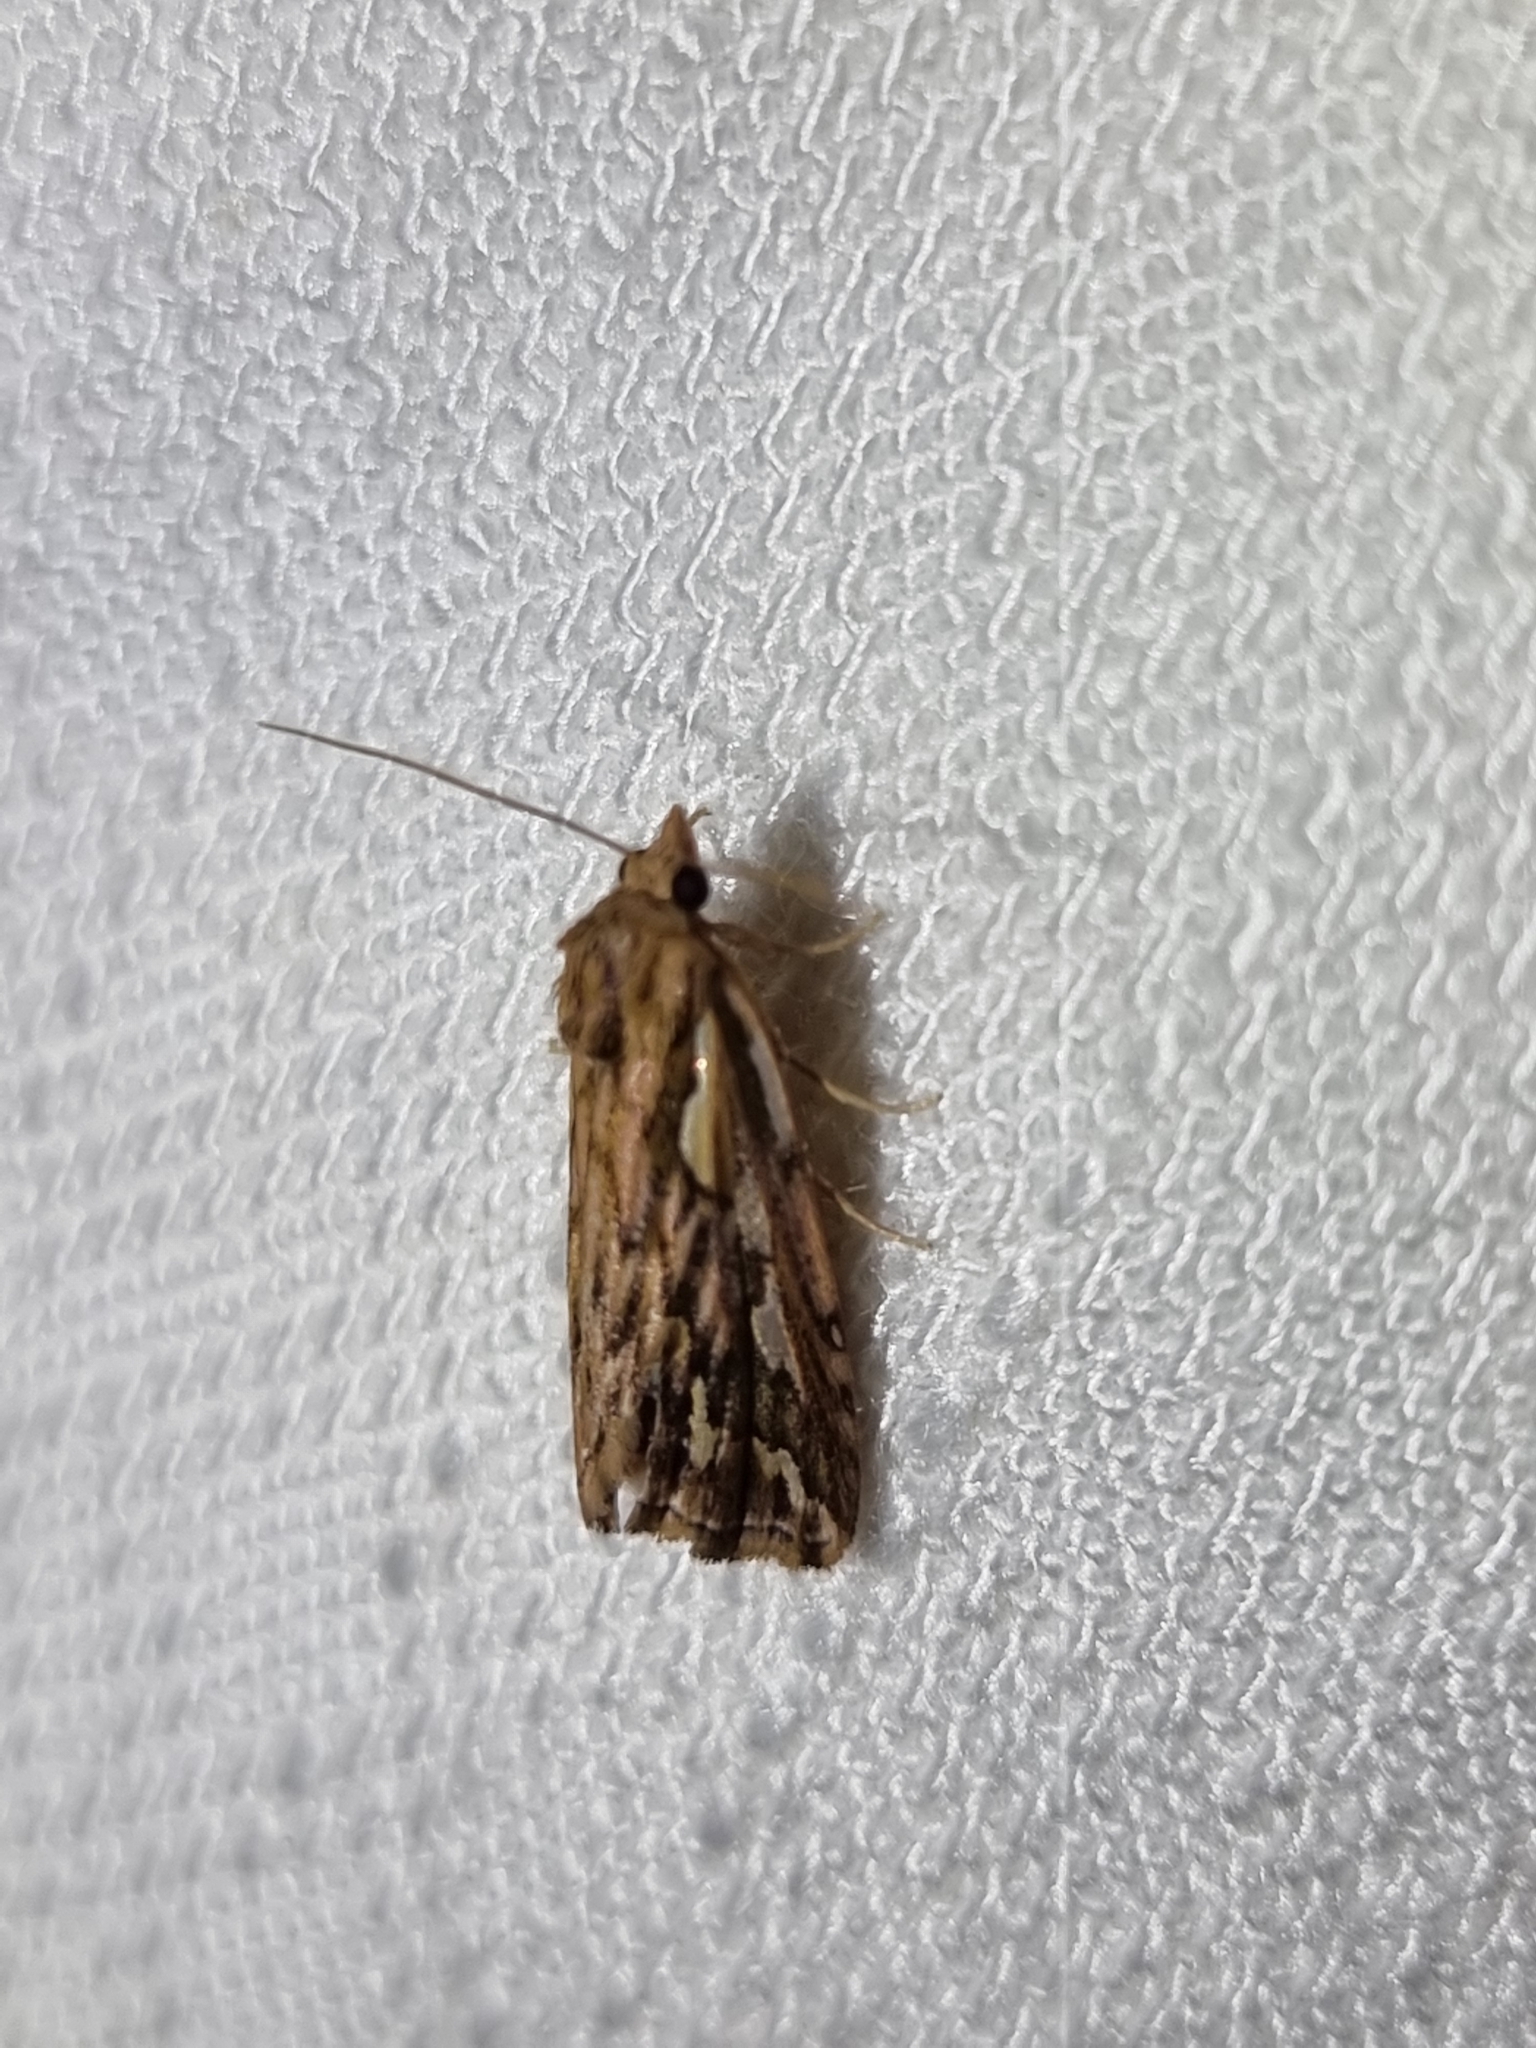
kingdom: Animalia
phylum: Arthropoda
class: Insecta
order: Lepidoptera
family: Erebidae
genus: Meyrickella
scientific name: Meyrickella torquesauria
